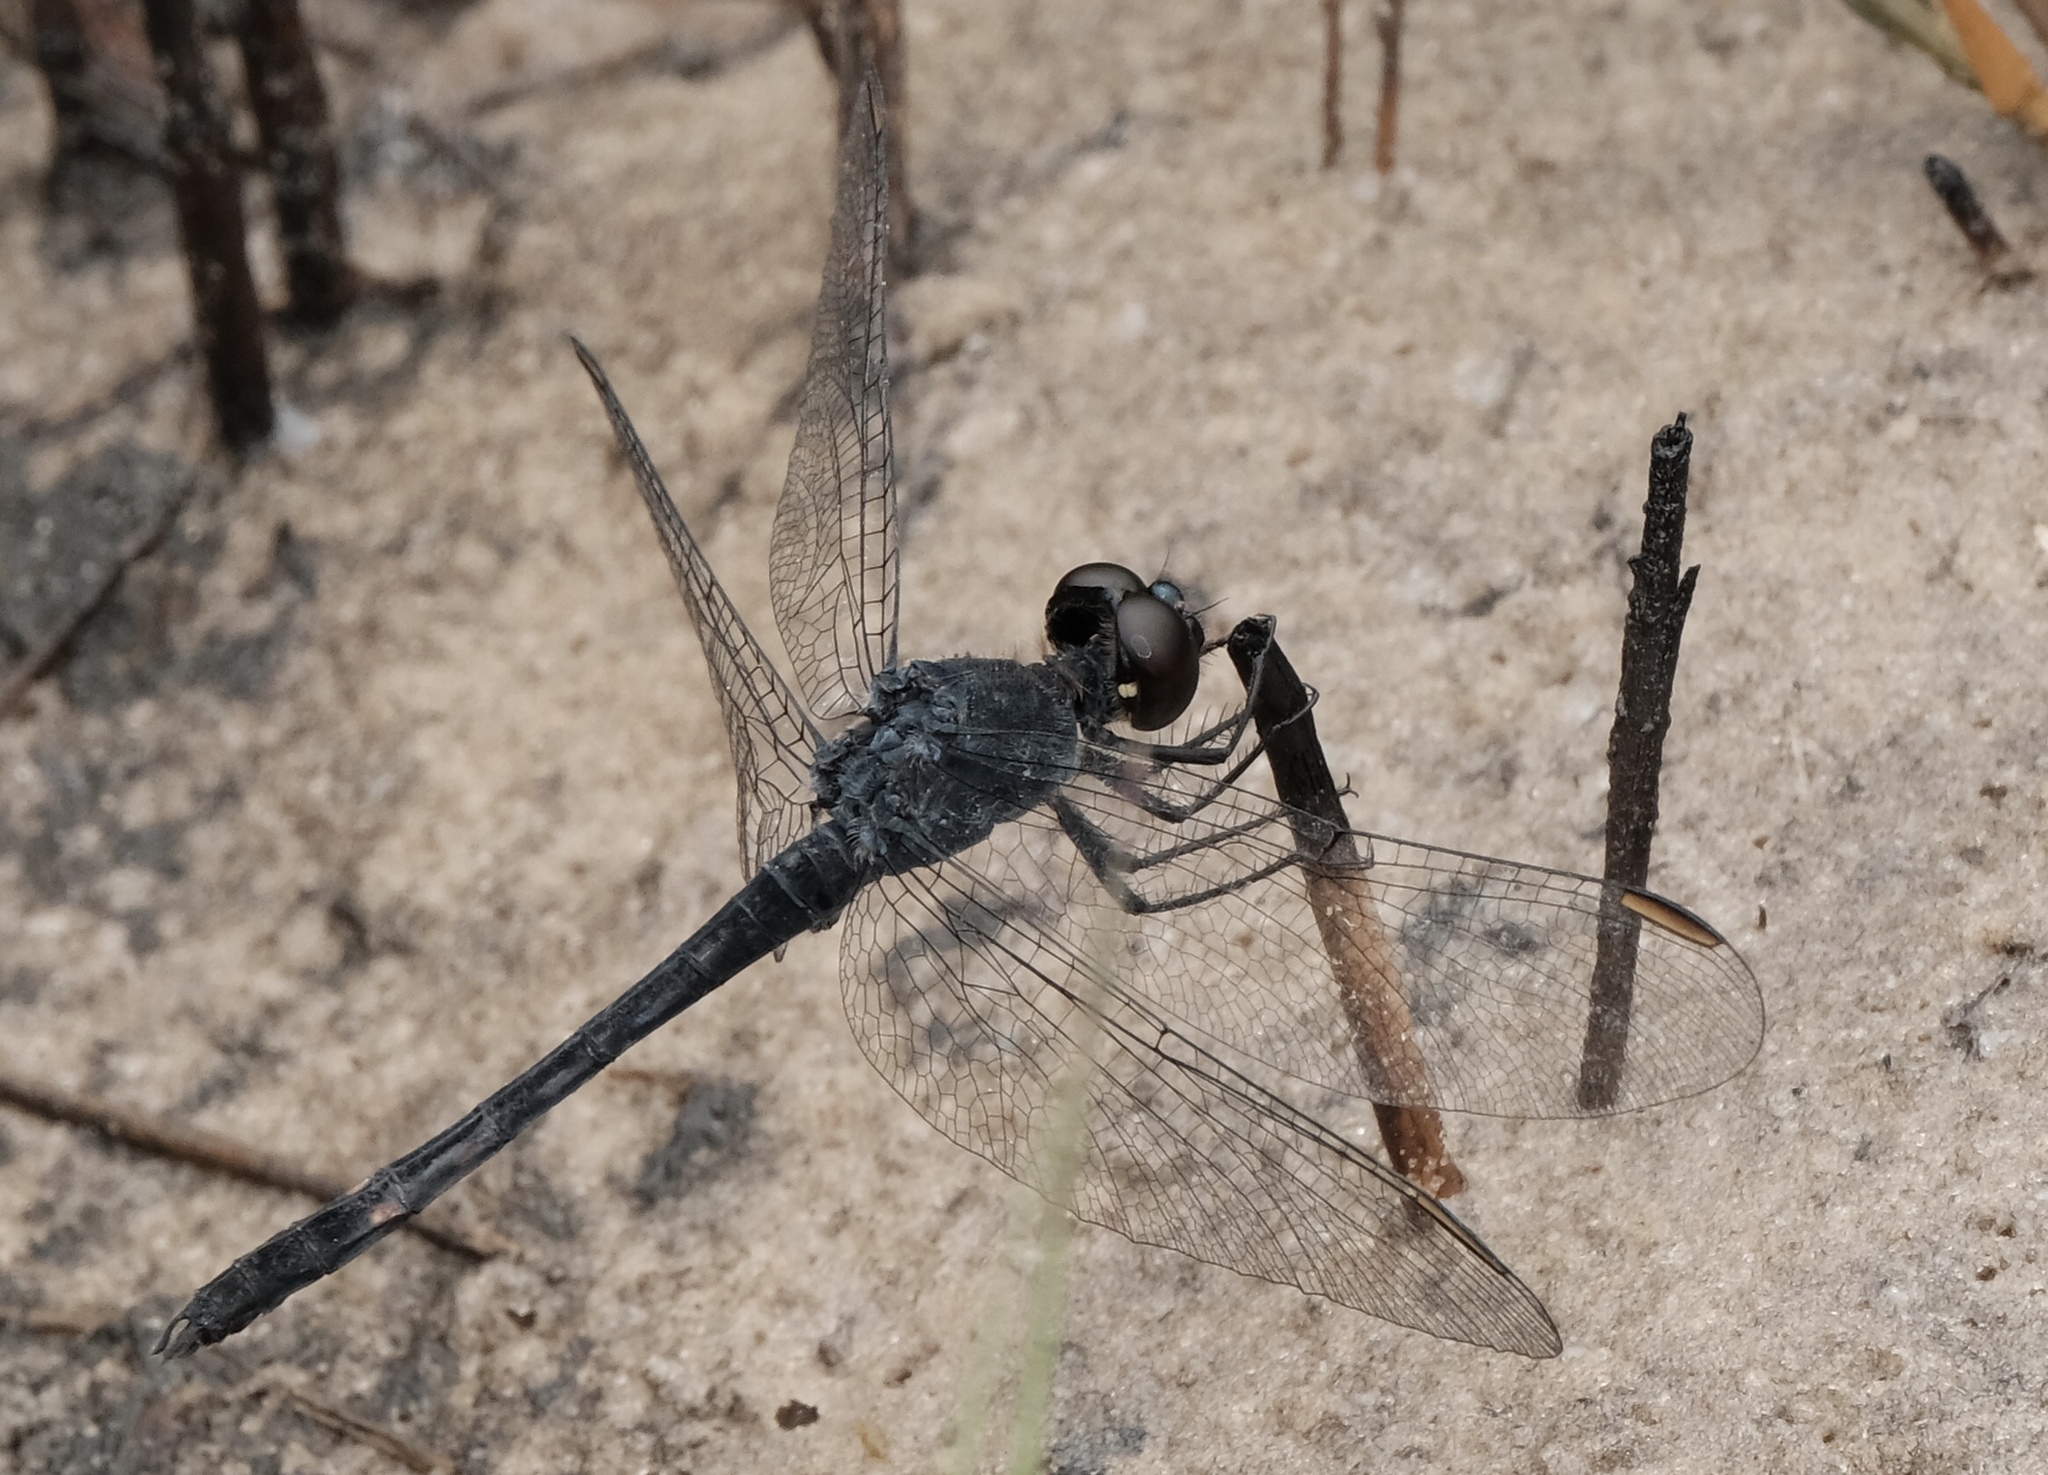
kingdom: Animalia
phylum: Arthropoda
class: Insecta
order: Odonata
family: Libellulidae
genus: Erythrodiplax
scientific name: Erythrodiplax berenice
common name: Seaside dragonlet
